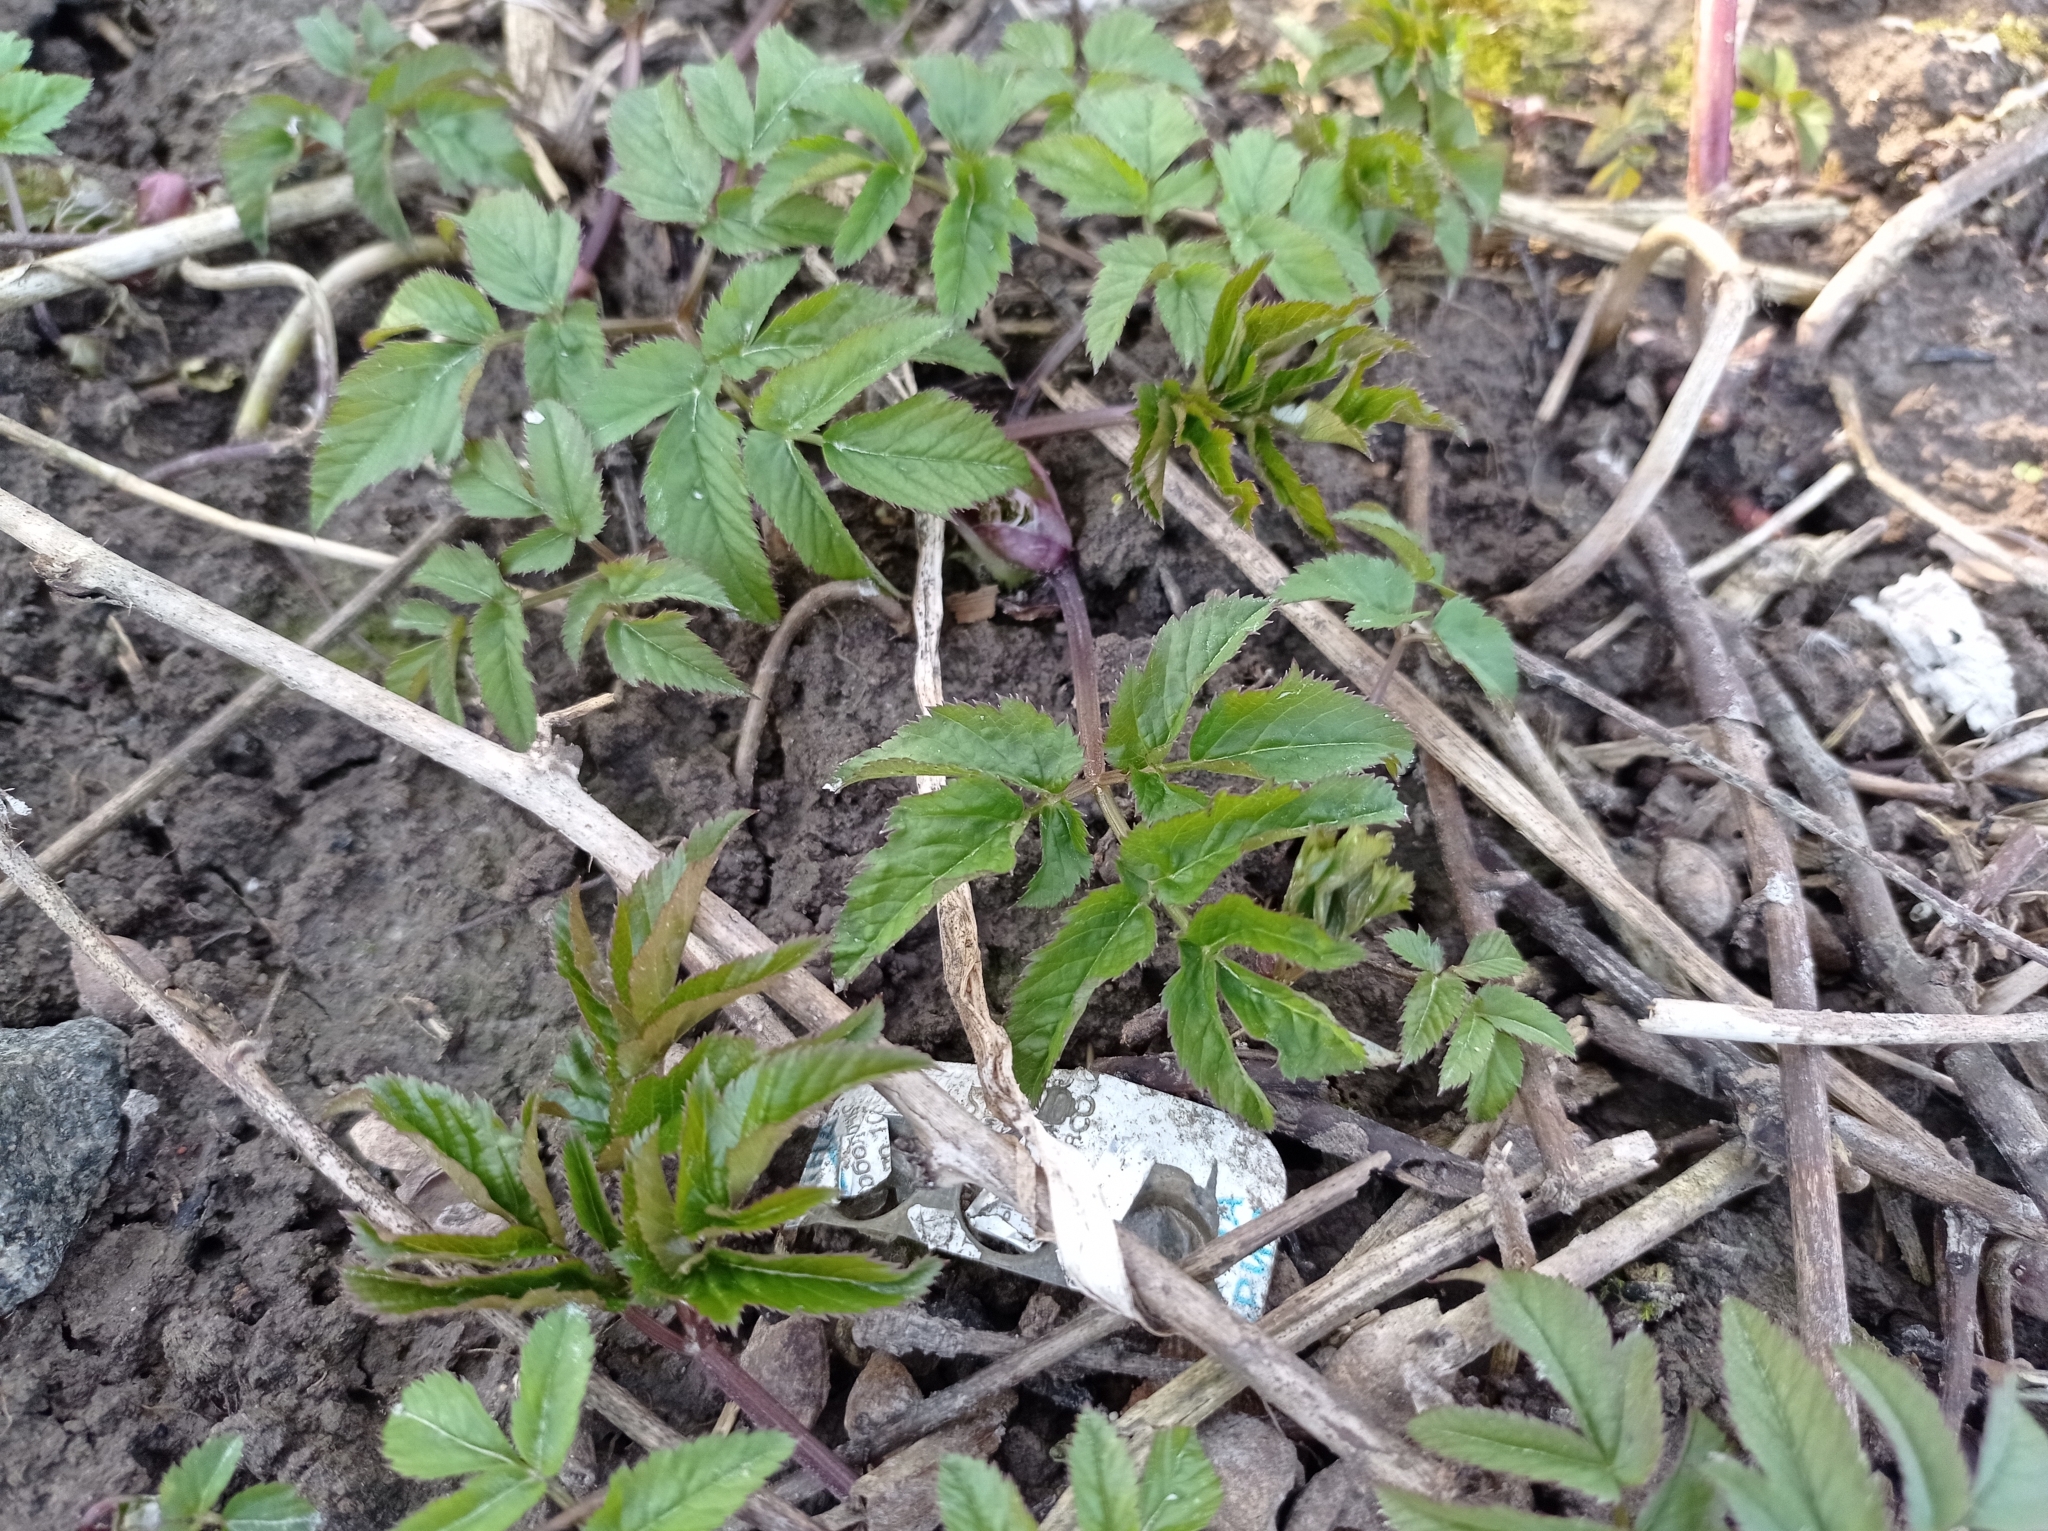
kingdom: Plantae
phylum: Tracheophyta
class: Magnoliopsida
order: Apiales
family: Apiaceae
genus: Aegopodium
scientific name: Aegopodium podagraria
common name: Ground-elder
